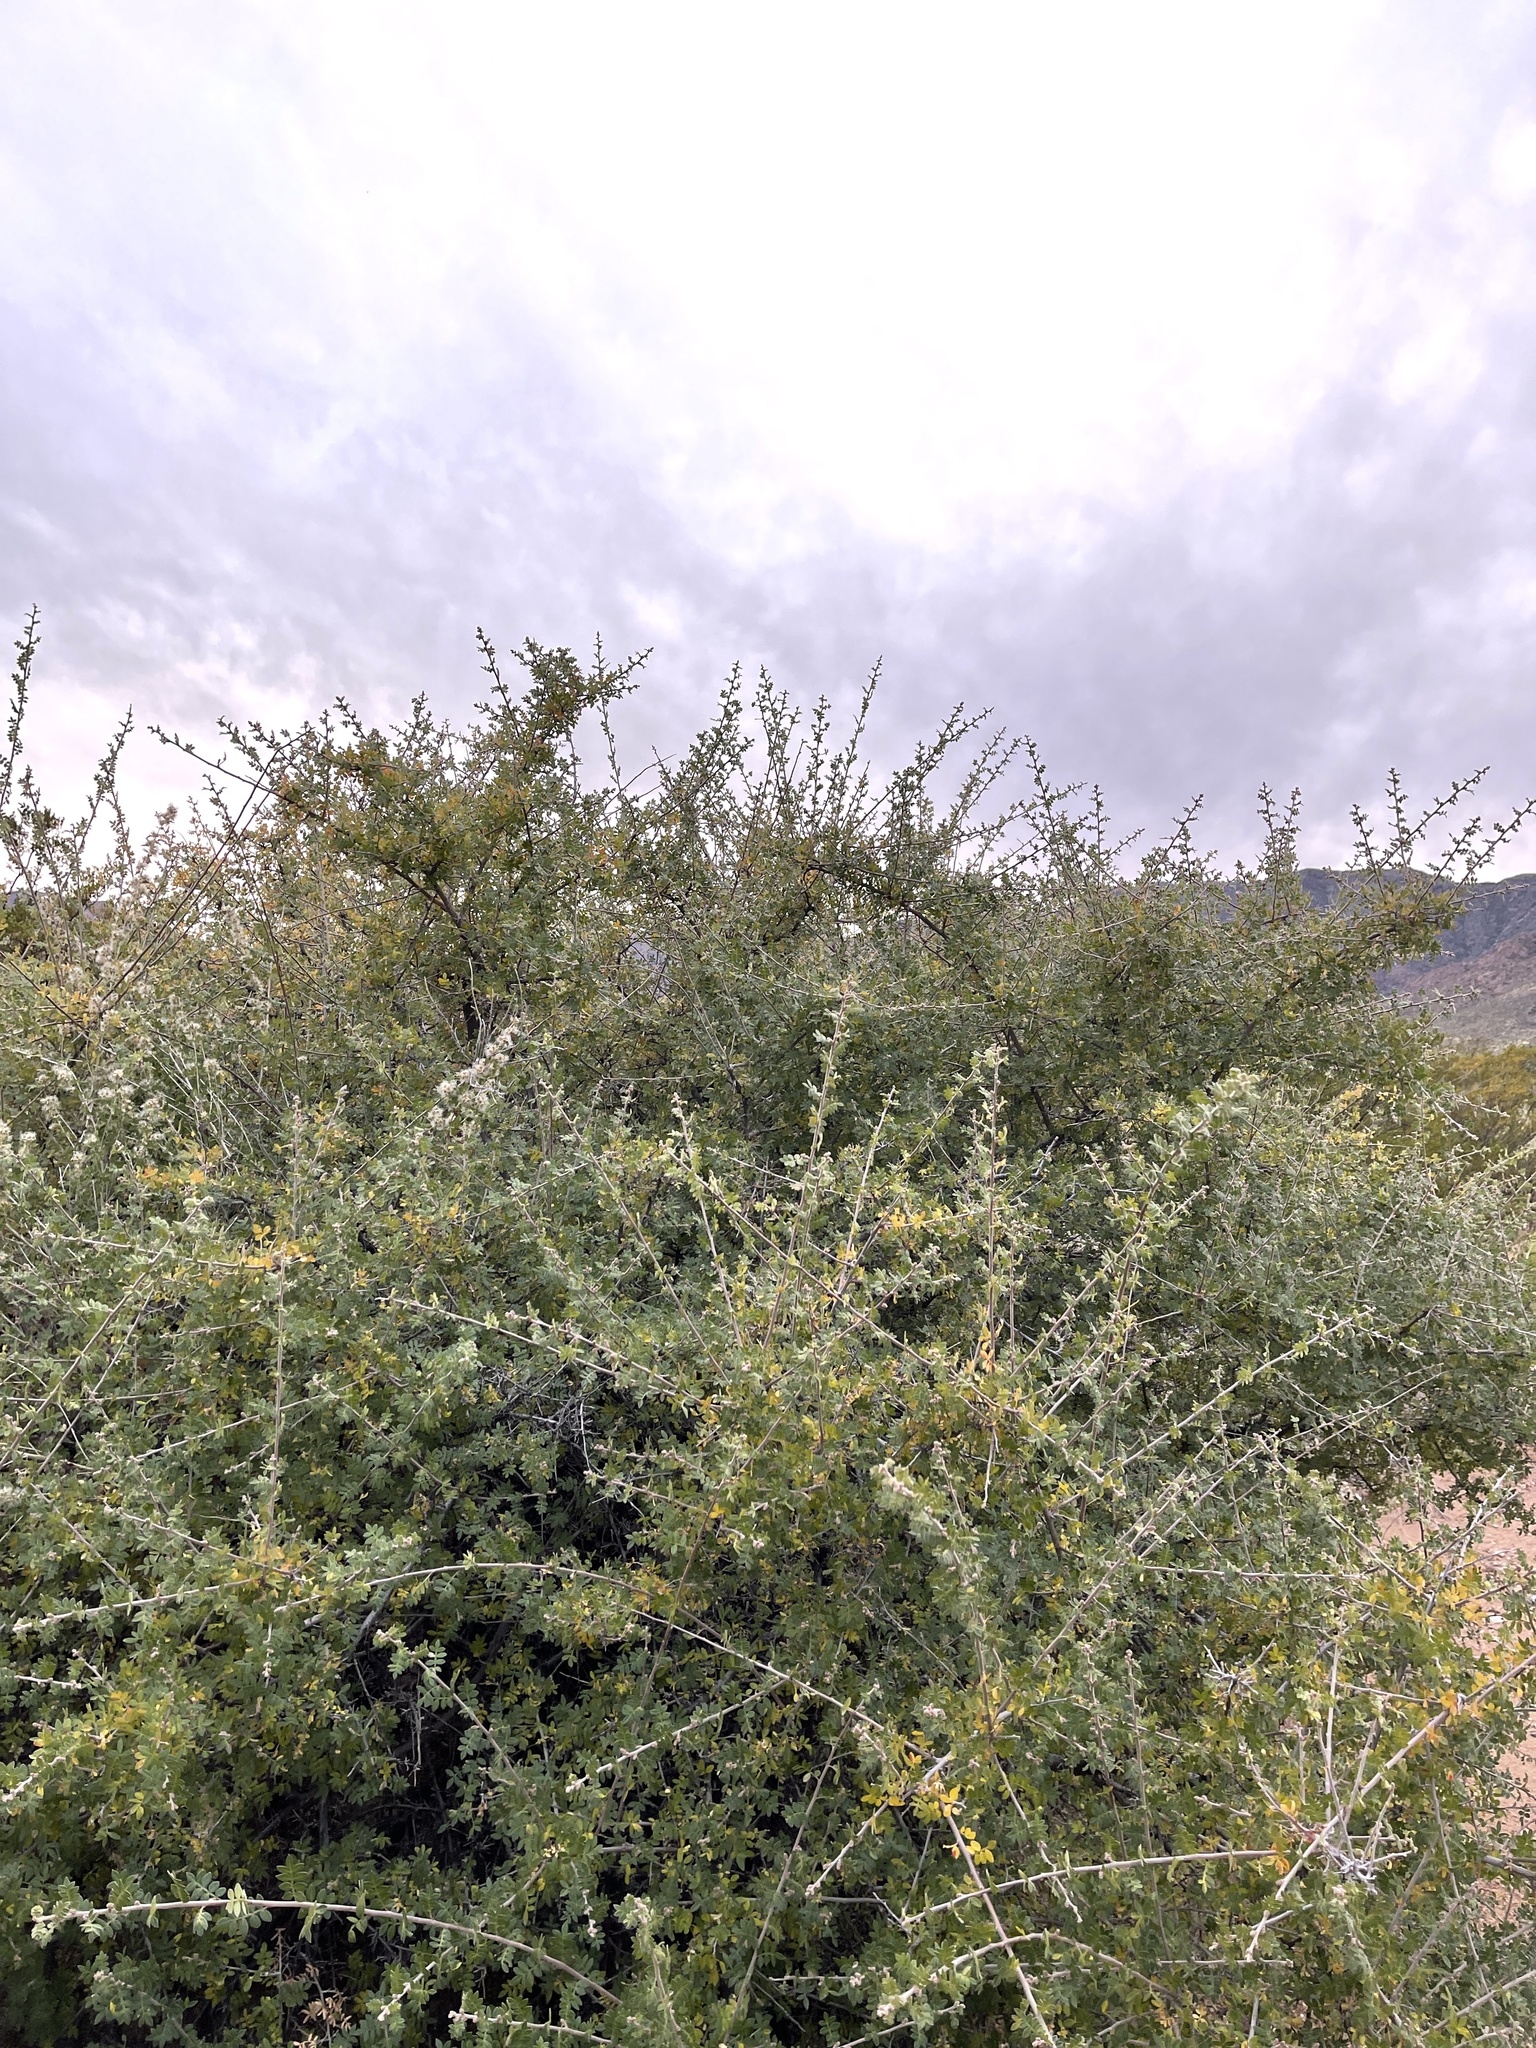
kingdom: Plantae
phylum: Tracheophyta
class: Magnoliopsida
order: Sapindales
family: Anacardiaceae
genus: Rhus
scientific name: Rhus microphylla
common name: Desert sumac
